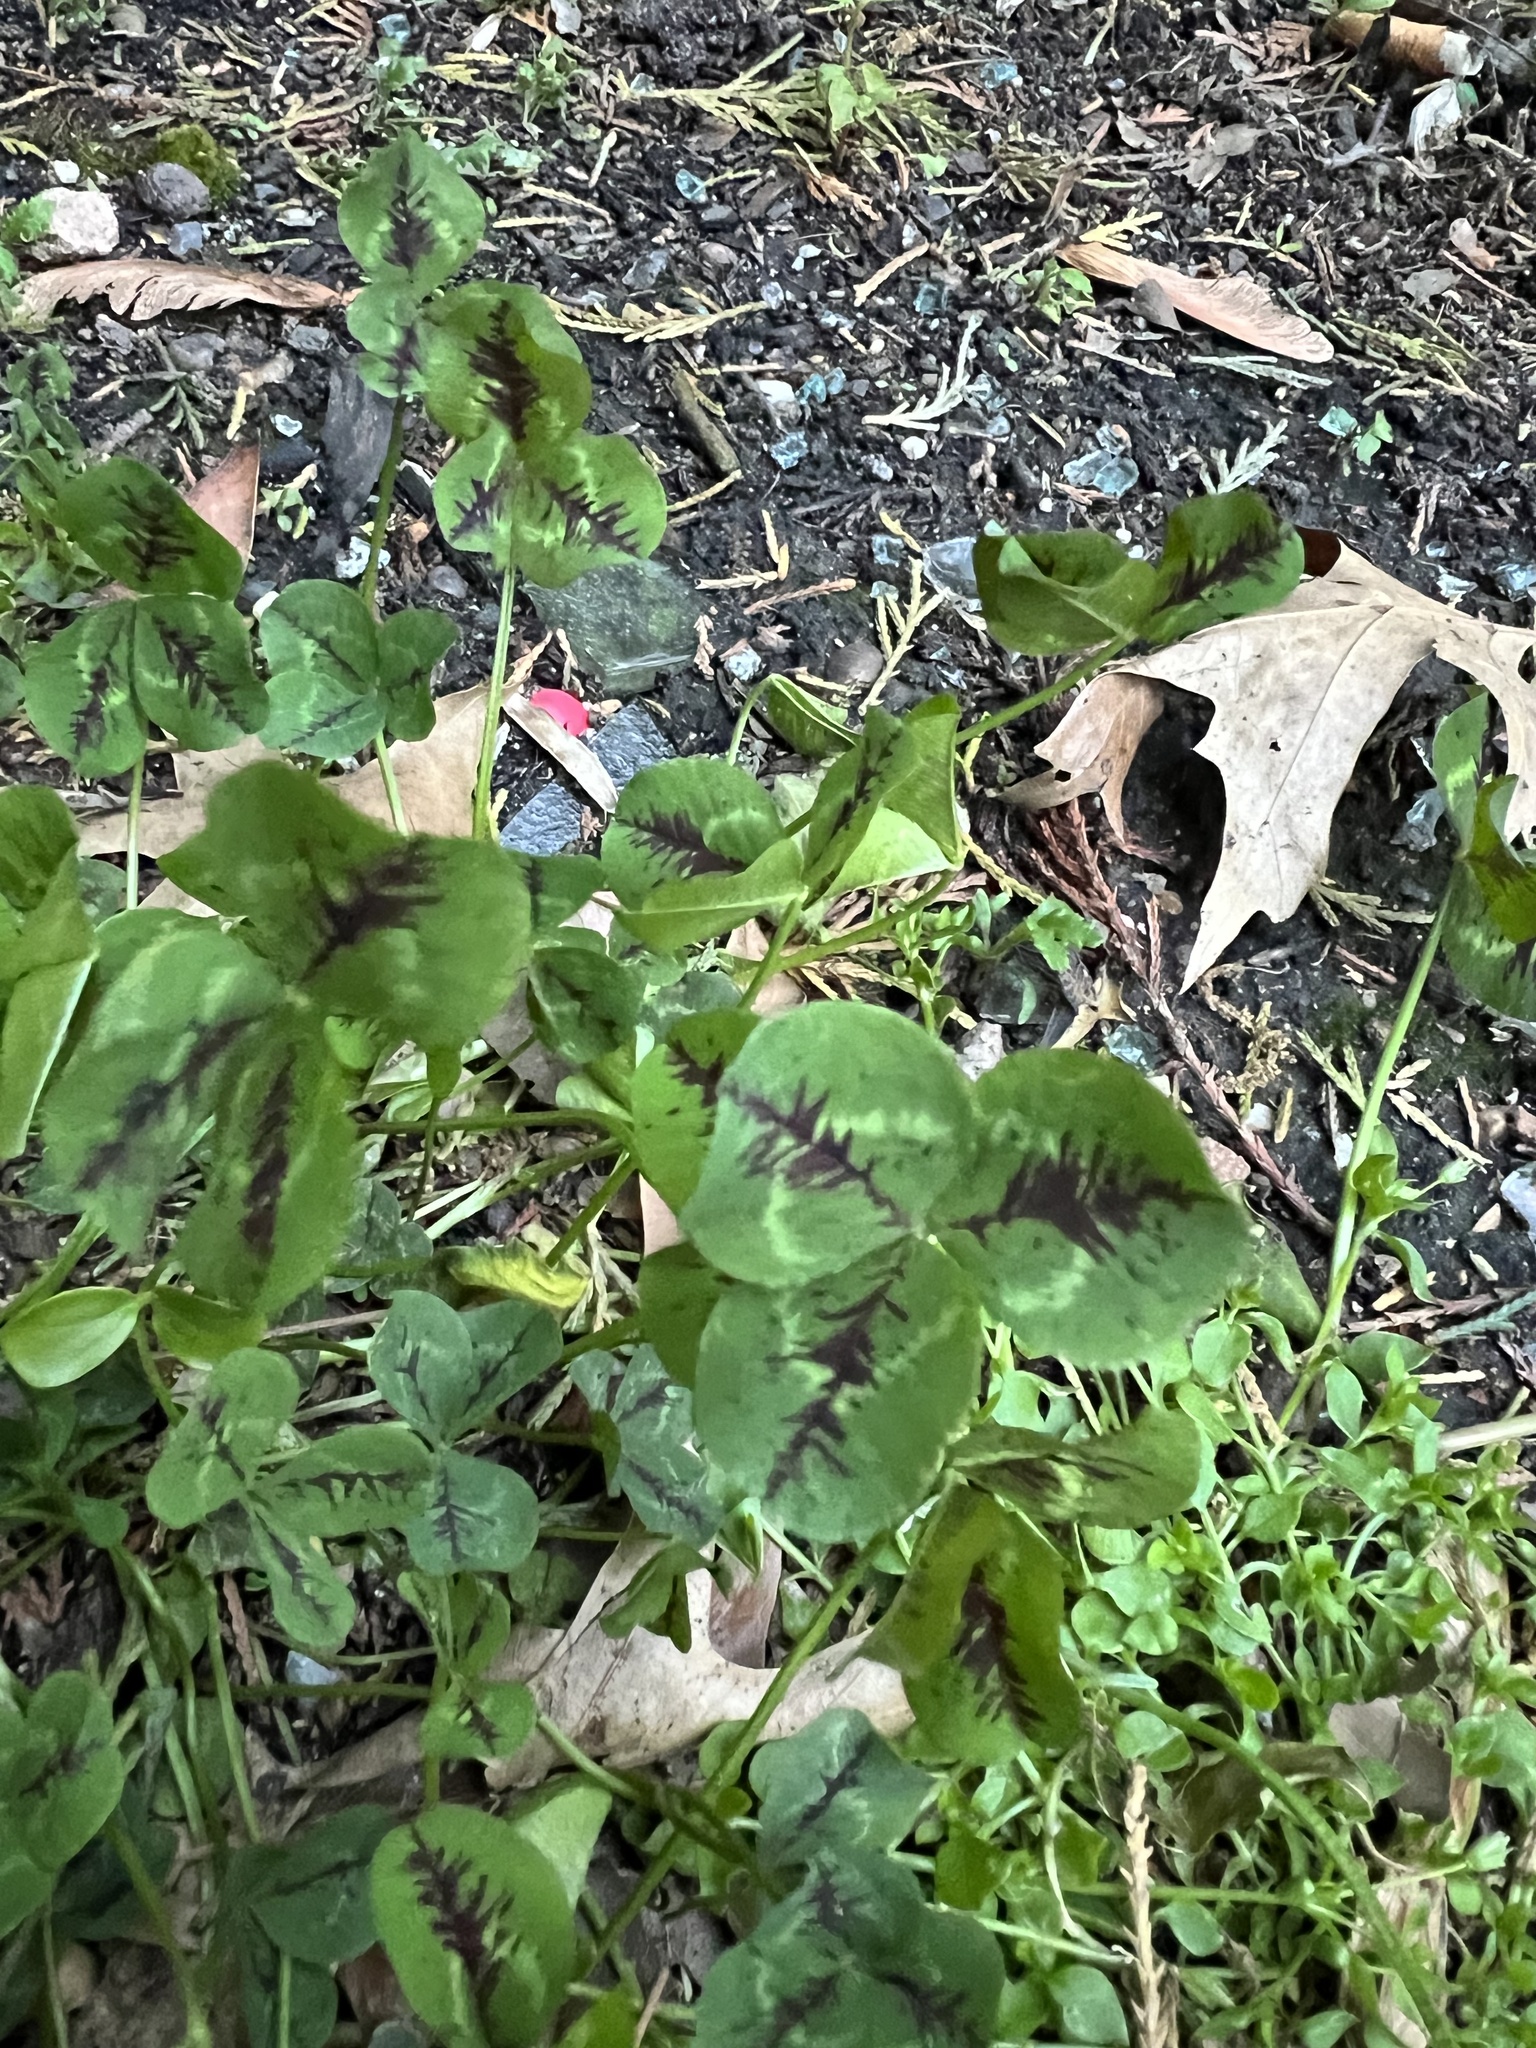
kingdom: Plantae
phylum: Tracheophyta
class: Magnoliopsida
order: Fabales
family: Fabaceae
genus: Trifolium
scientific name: Trifolium repens
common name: White clover
